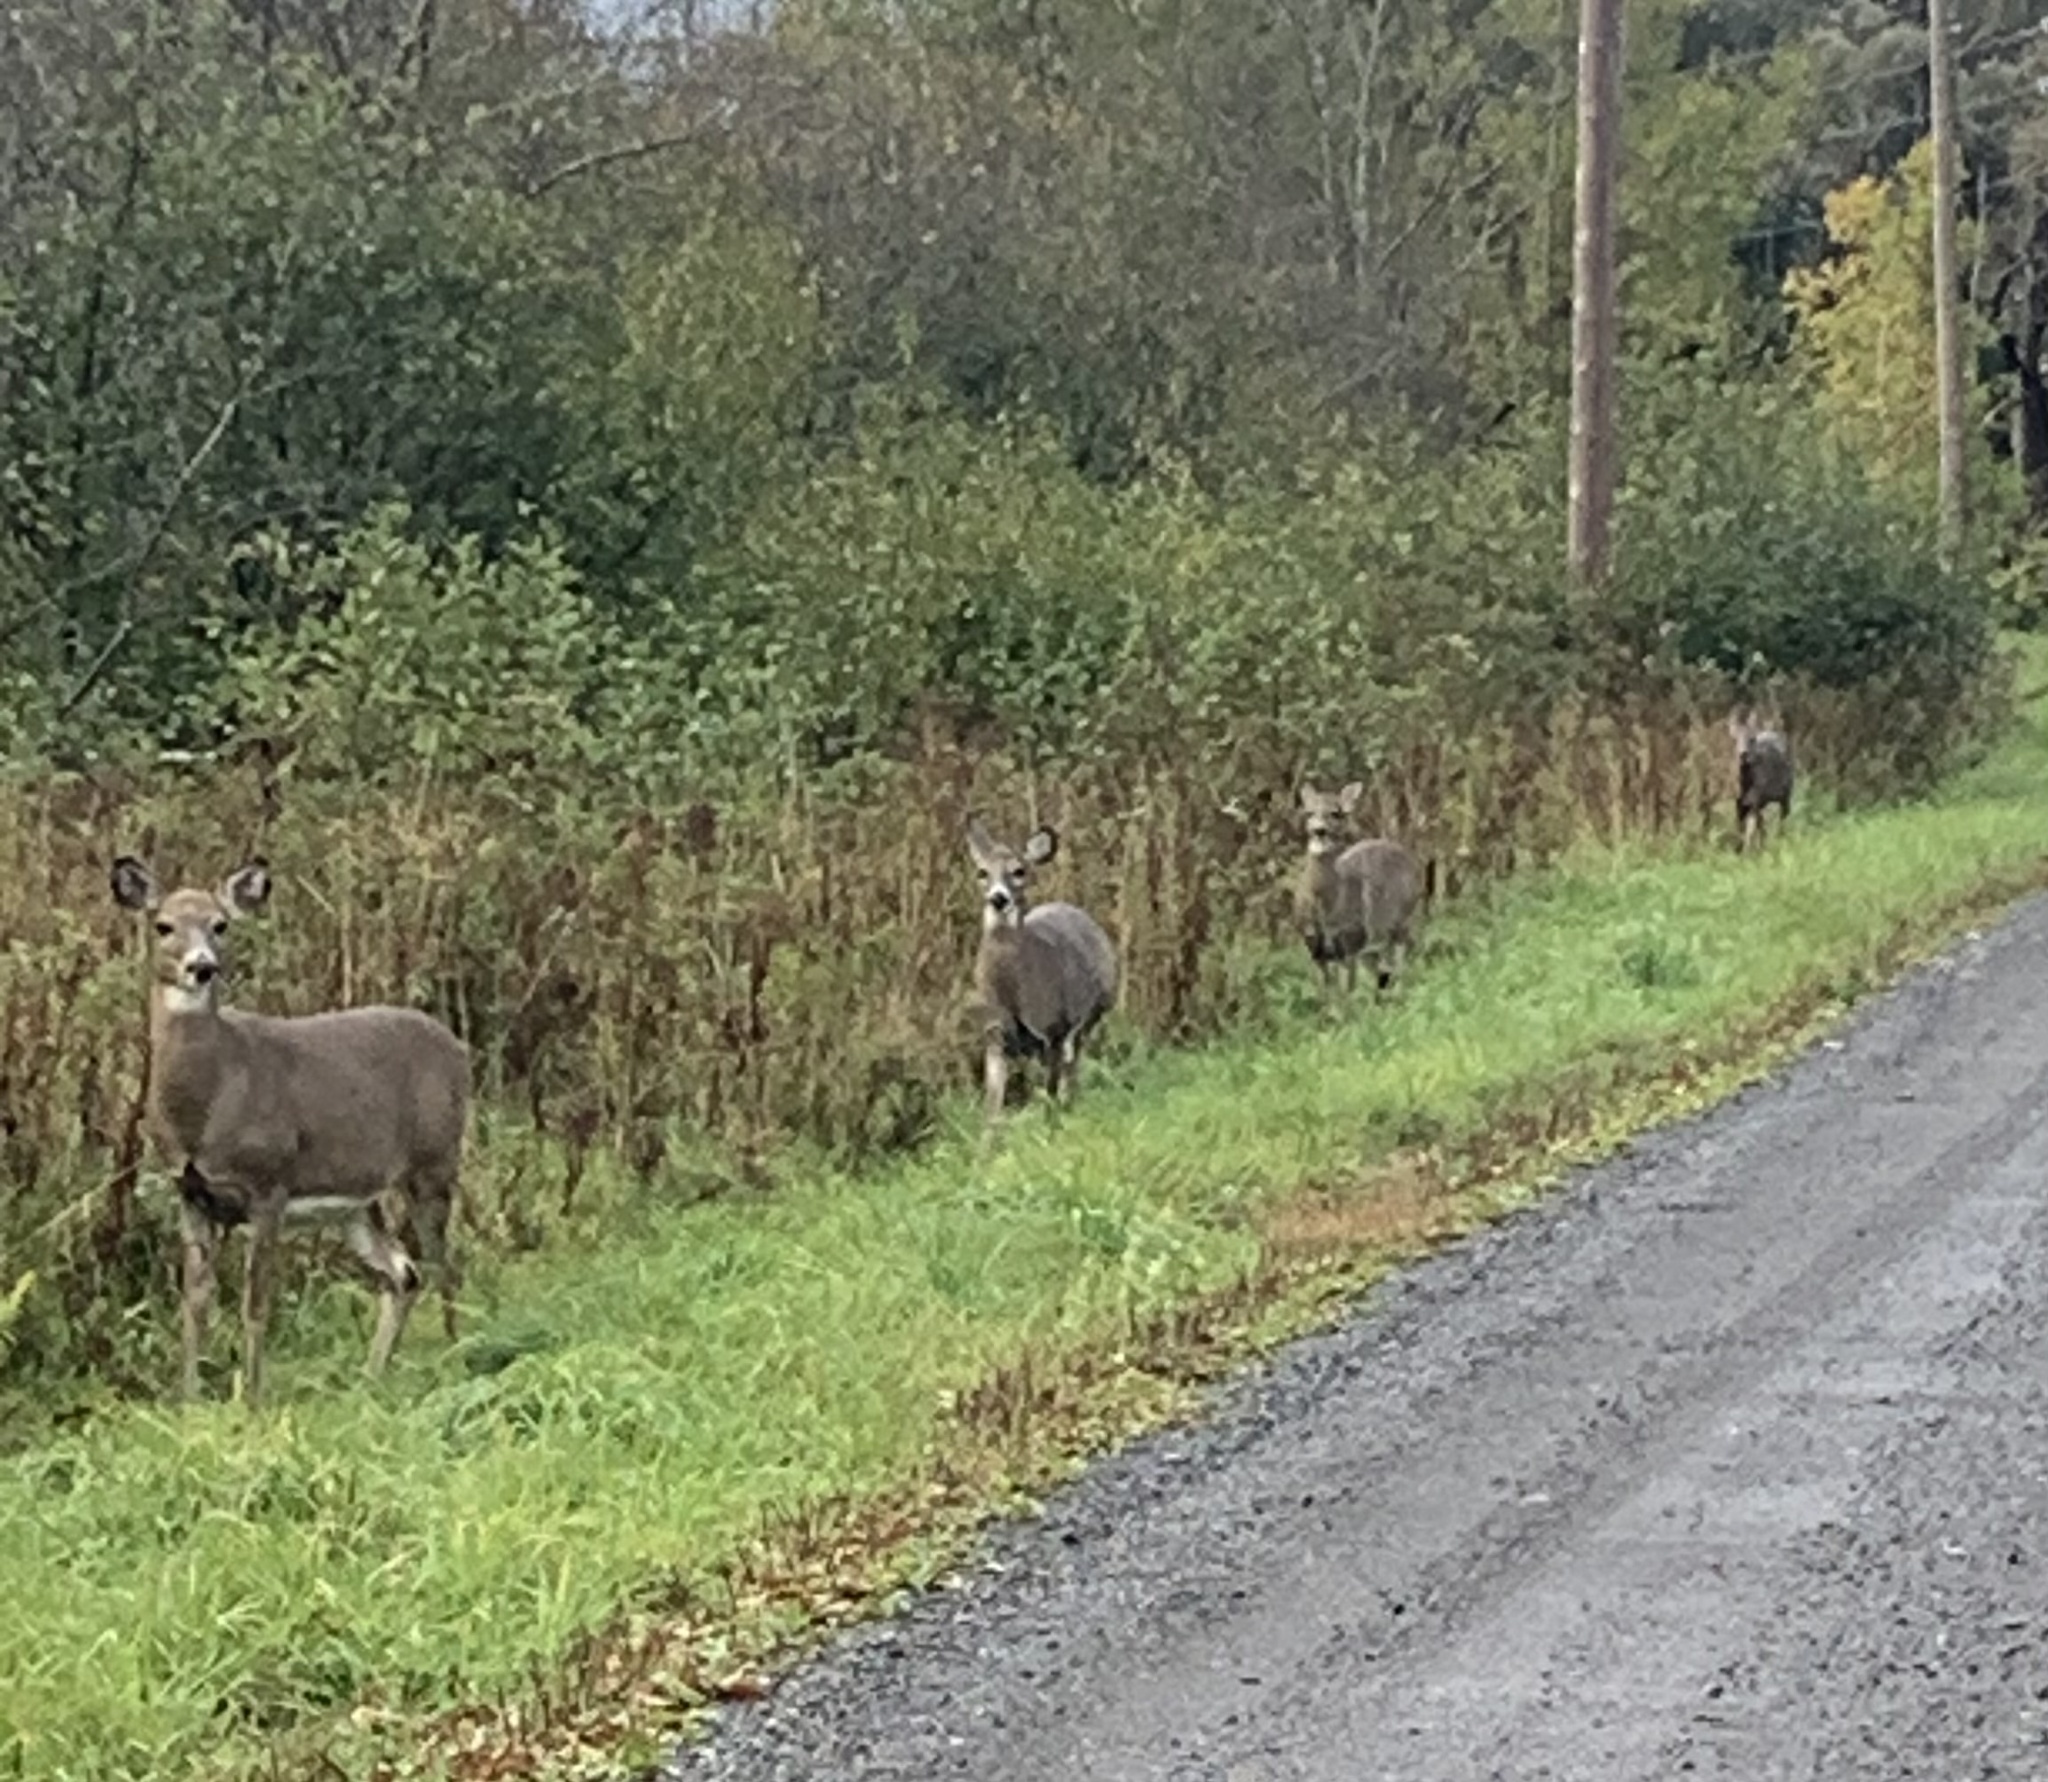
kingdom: Animalia
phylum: Chordata
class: Mammalia
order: Artiodactyla
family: Cervidae
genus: Odocoileus
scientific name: Odocoileus virginianus
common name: White-tailed deer
